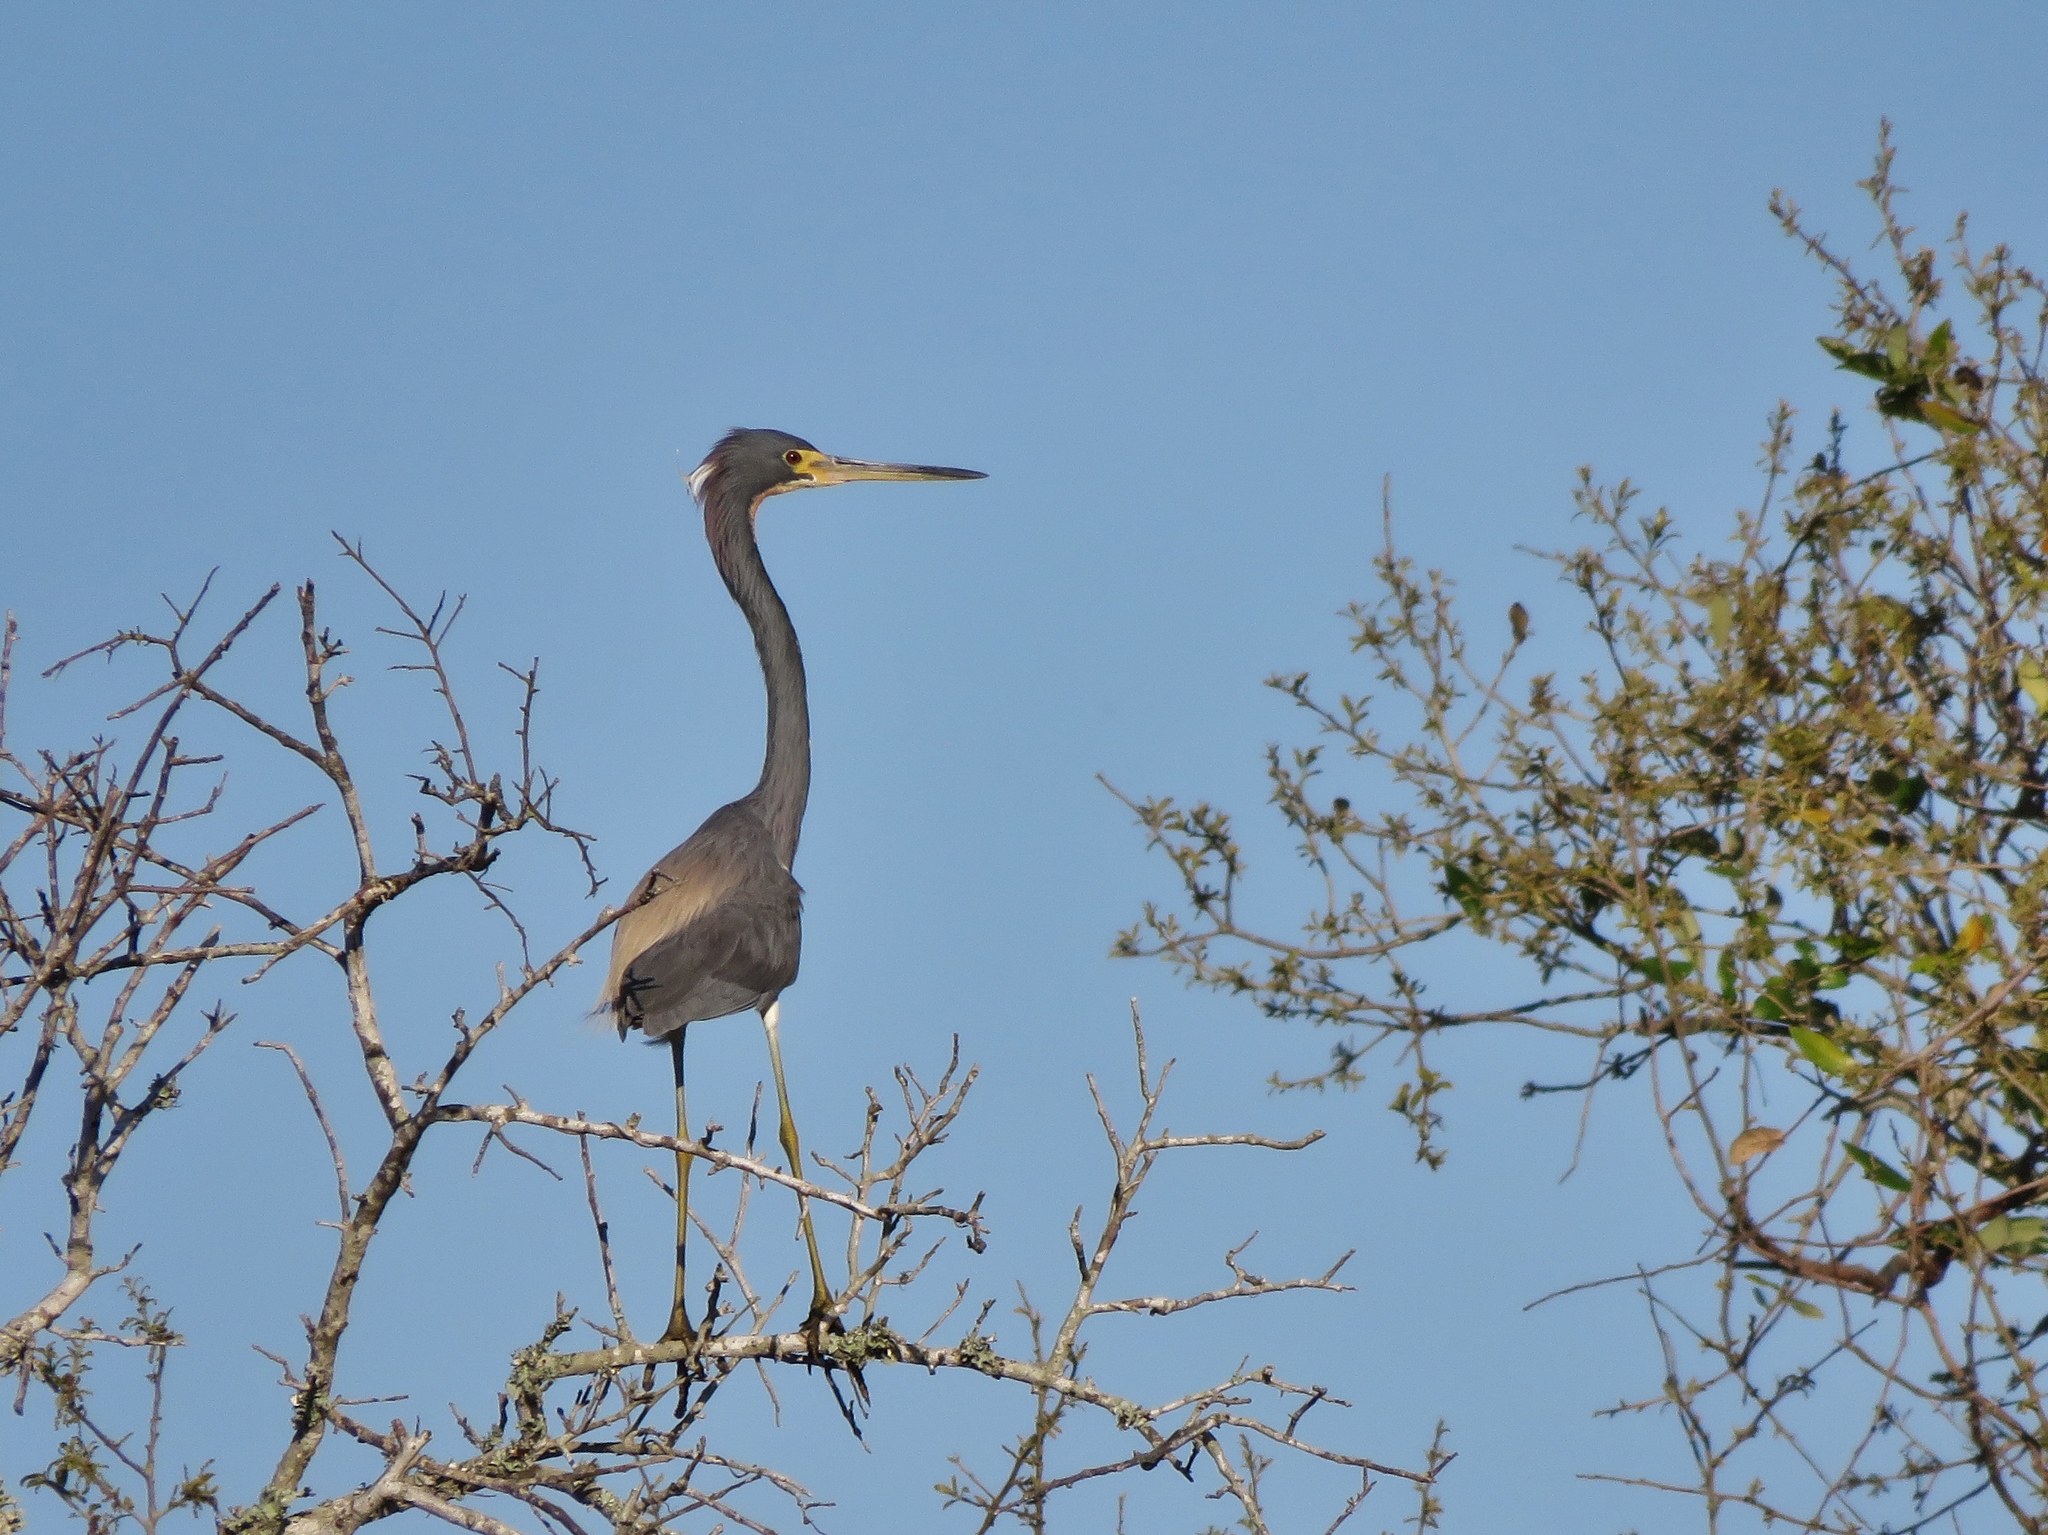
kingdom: Animalia
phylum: Chordata
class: Aves
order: Pelecaniformes
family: Ardeidae
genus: Egretta
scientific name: Egretta tricolor
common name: Tricolored heron
